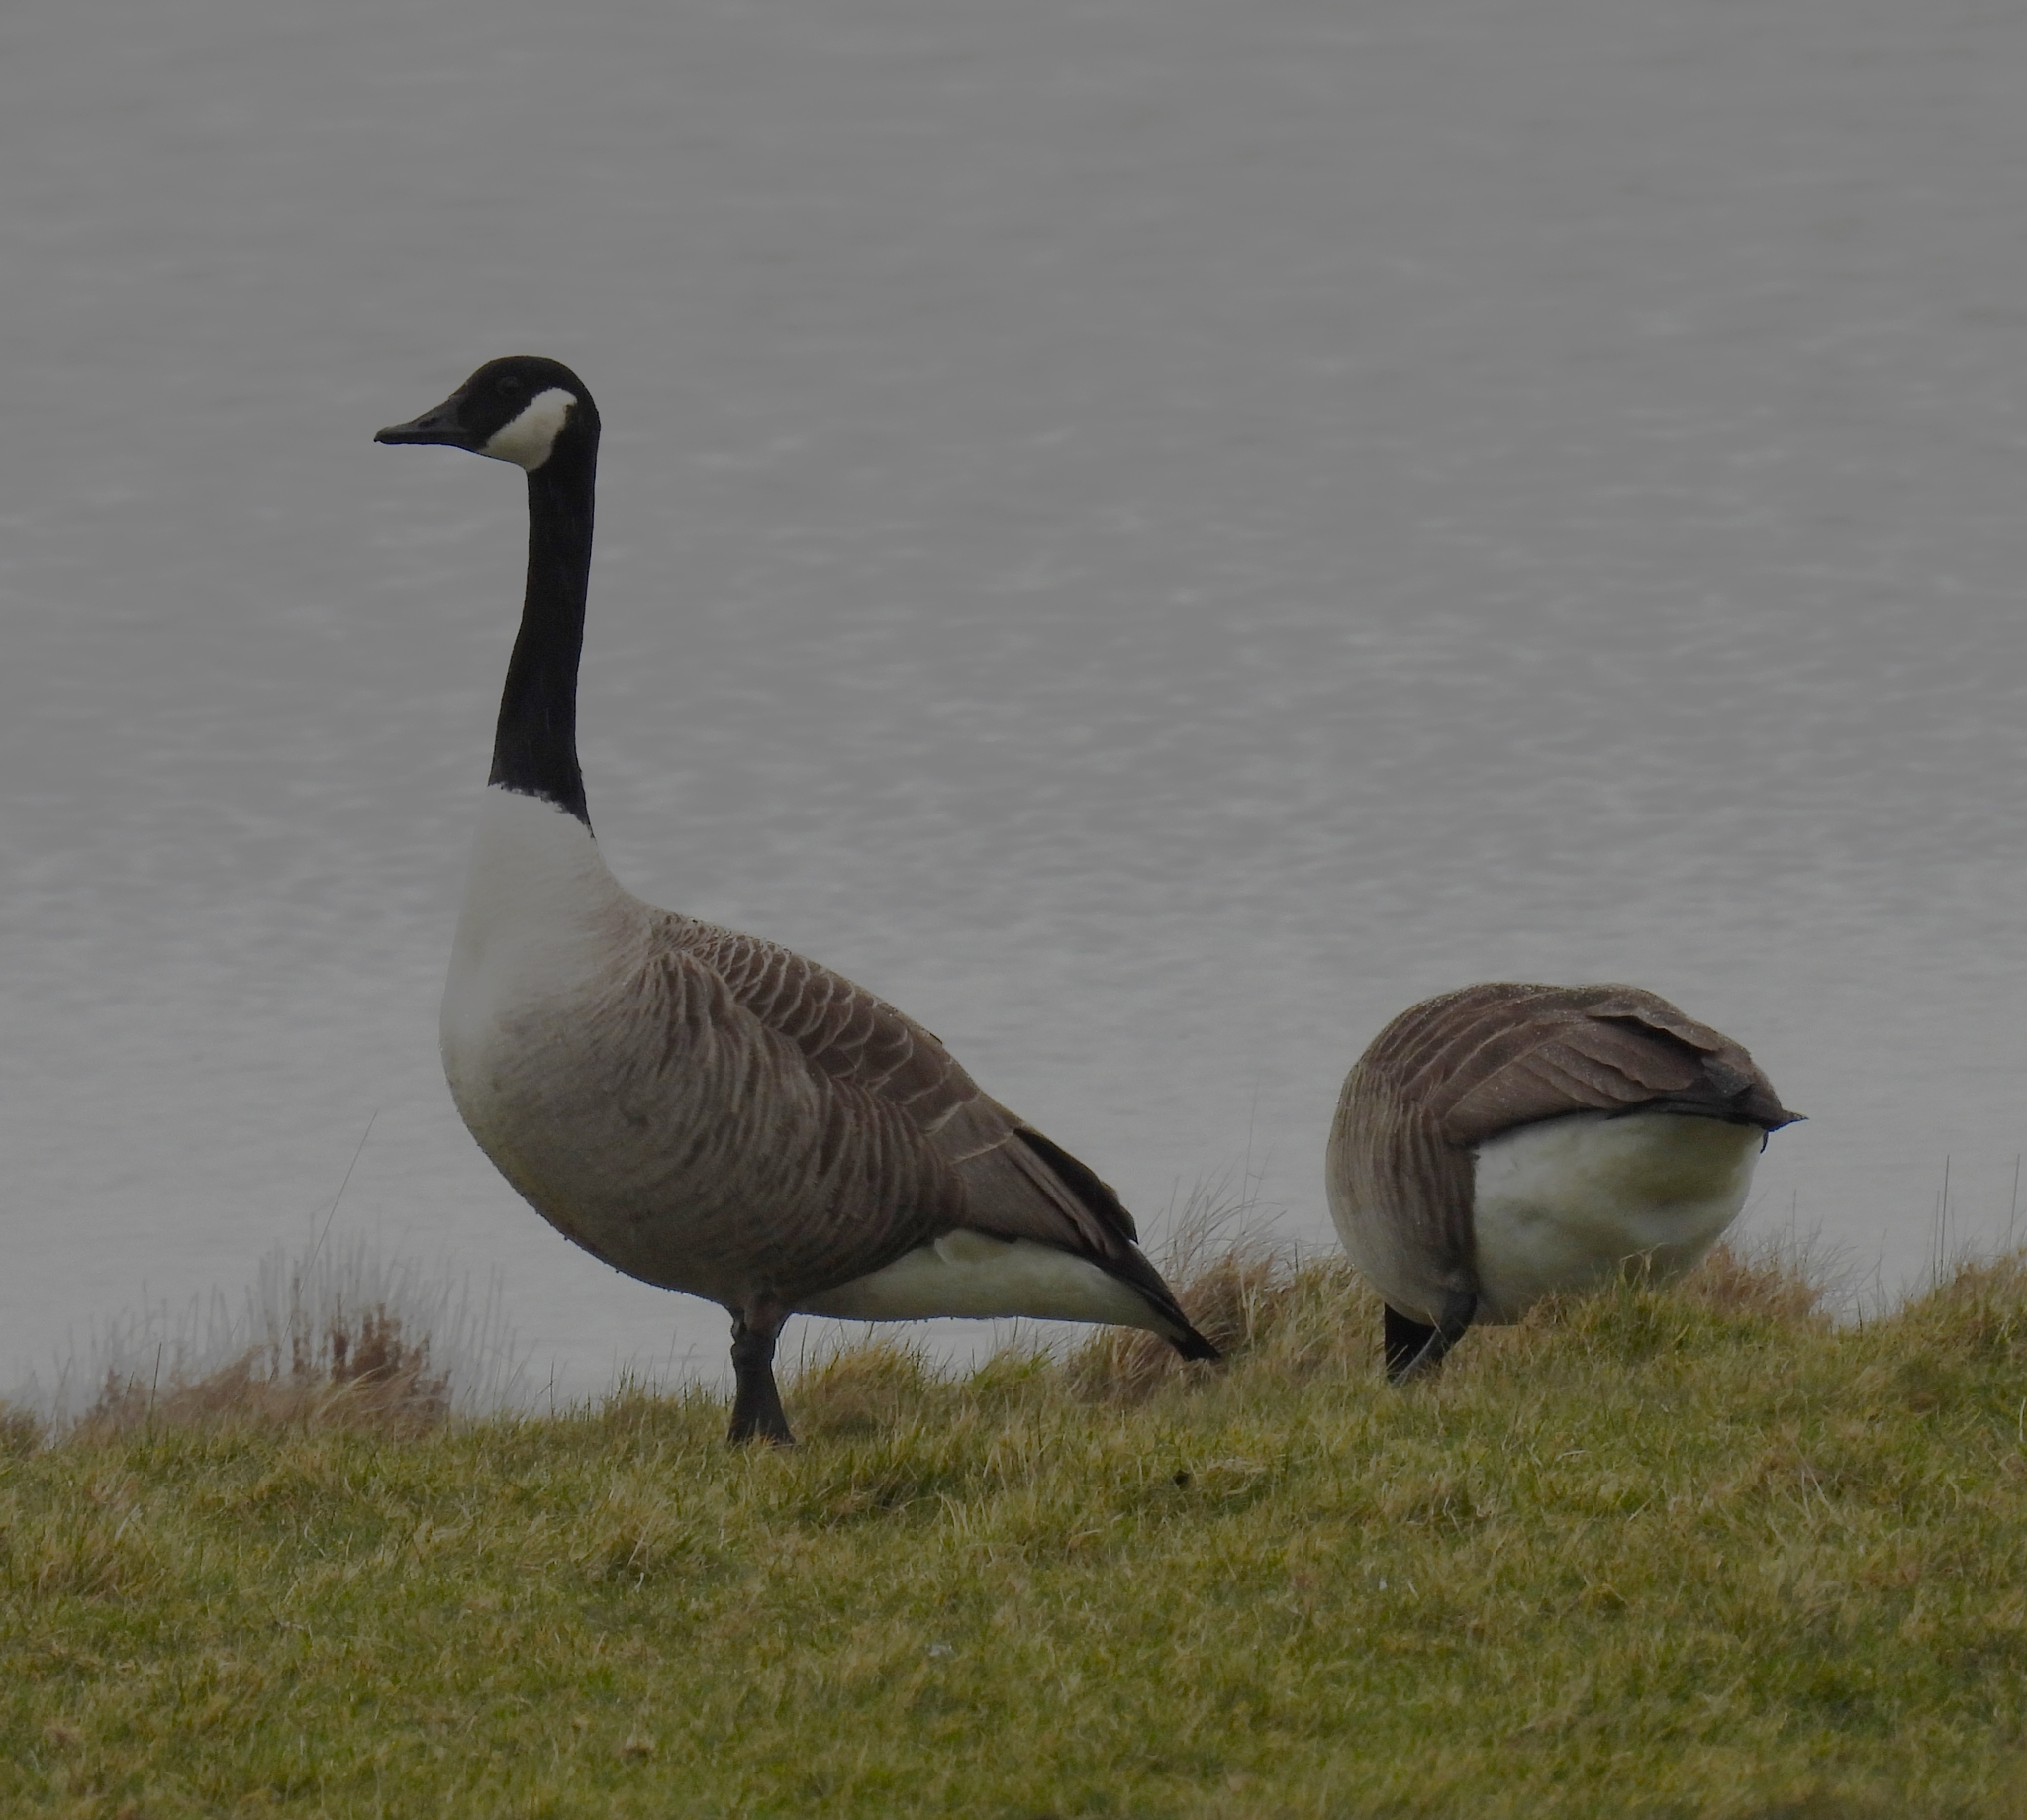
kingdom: Animalia
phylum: Chordata
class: Aves
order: Anseriformes
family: Anatidae
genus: Branta
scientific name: Branta canadensis
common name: Canada goose
